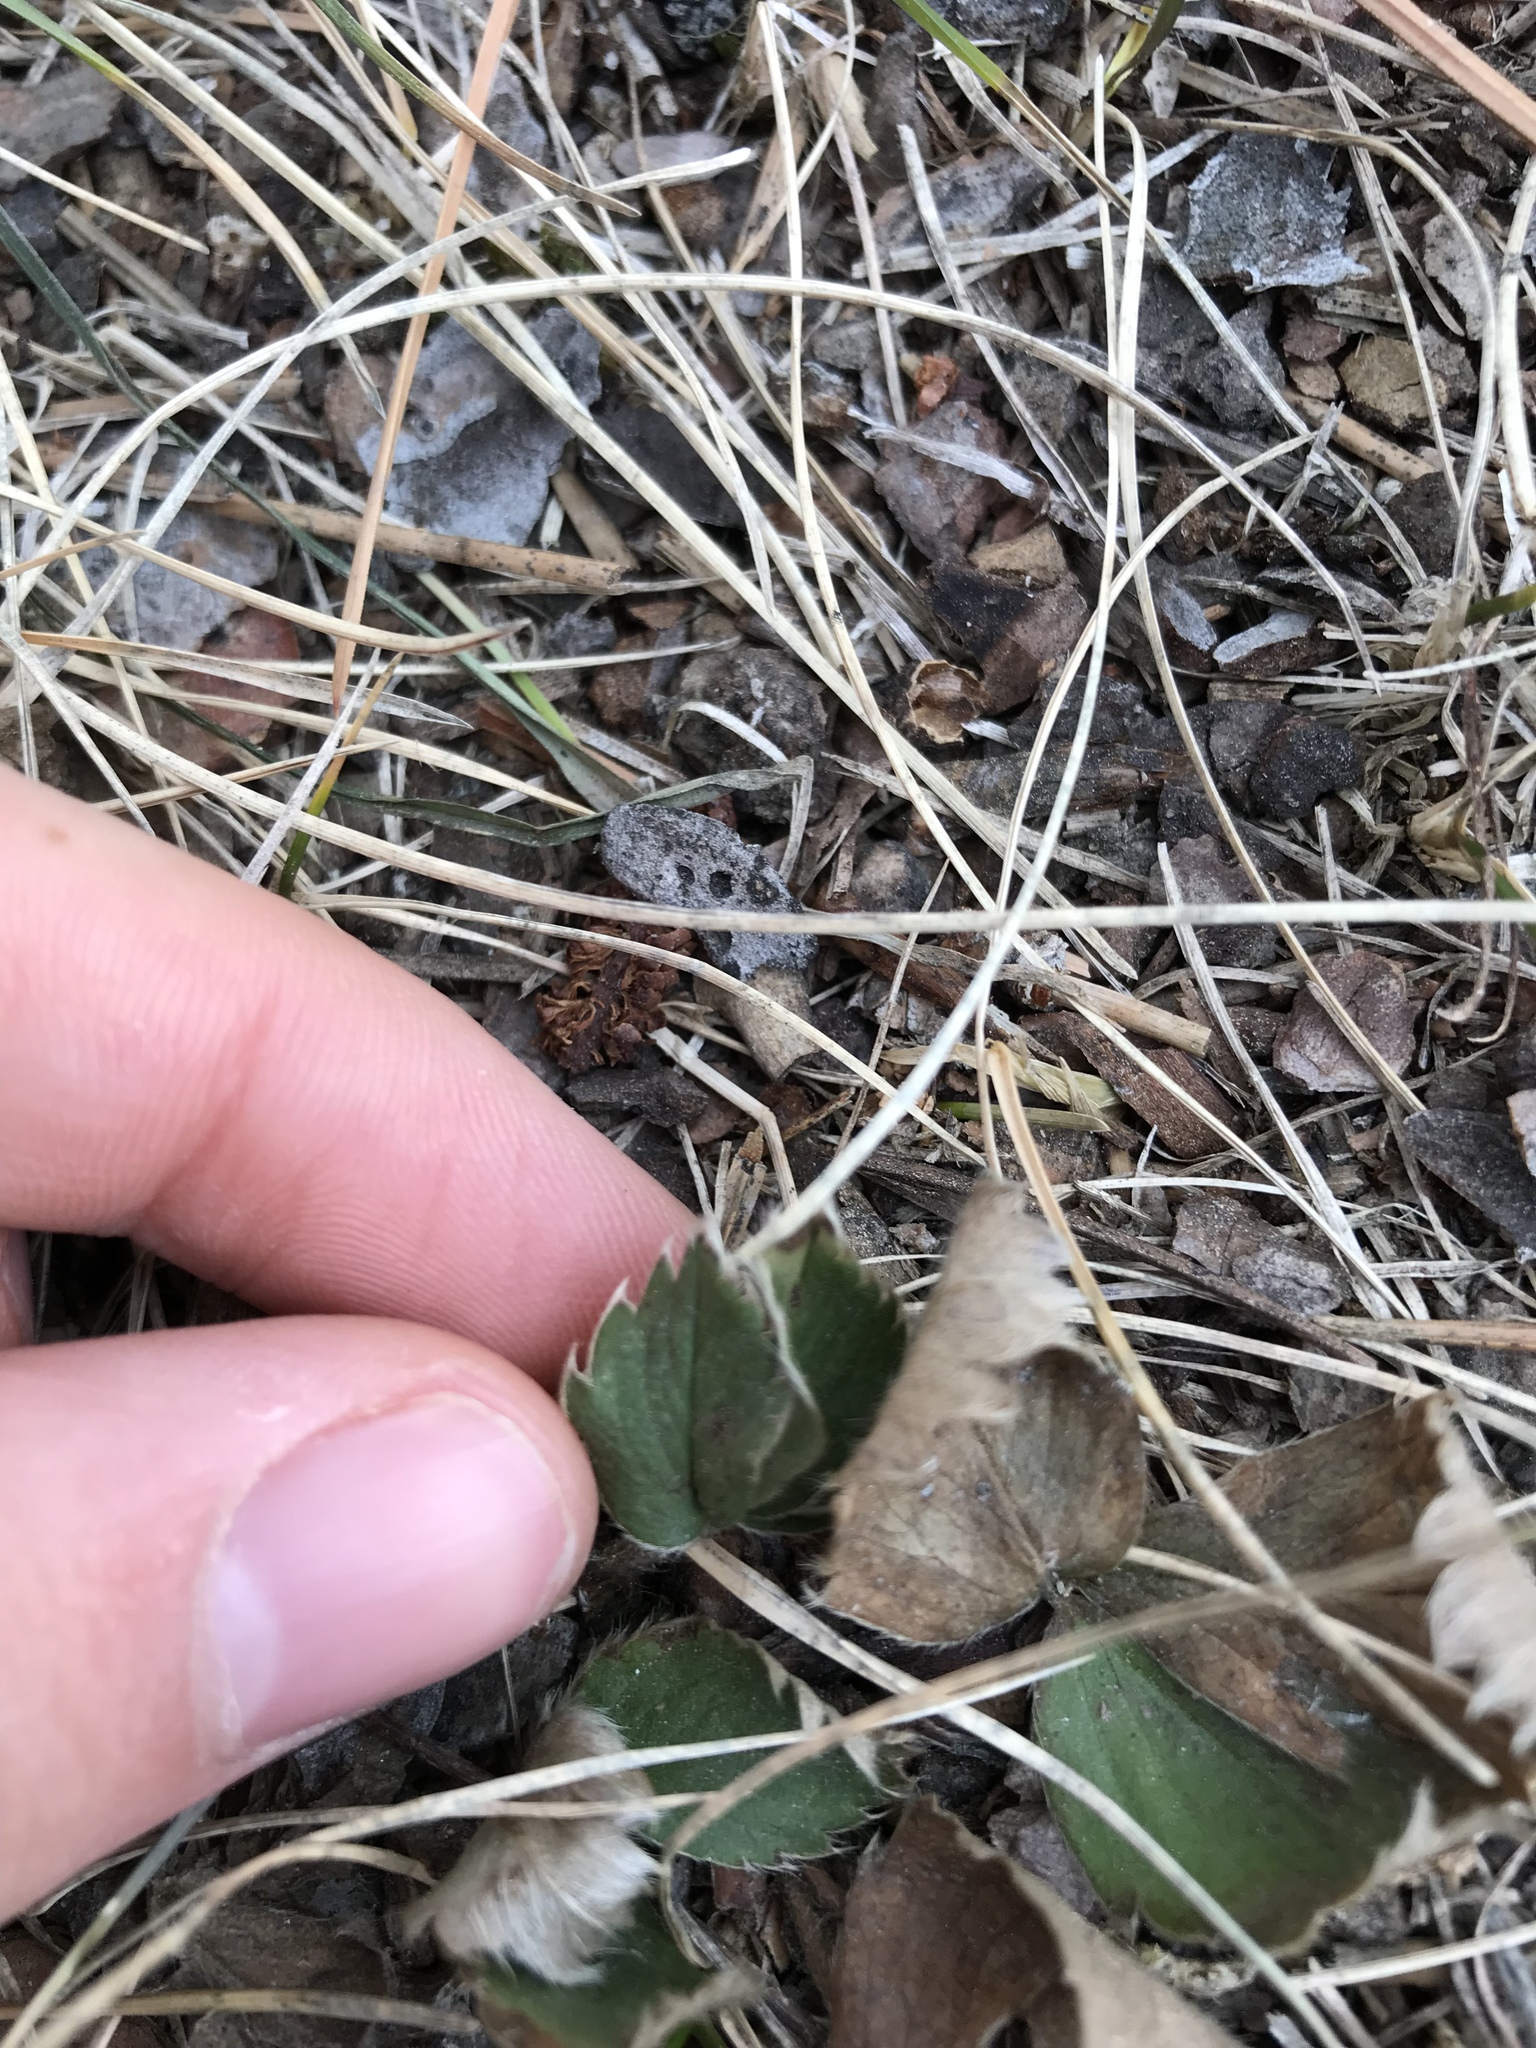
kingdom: Plantae
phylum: Tracheophyta
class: Magnoliopsida
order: Rosales
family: Rosaceae
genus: Fragaria
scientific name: Fragaria vesca
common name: Wild strawberry
